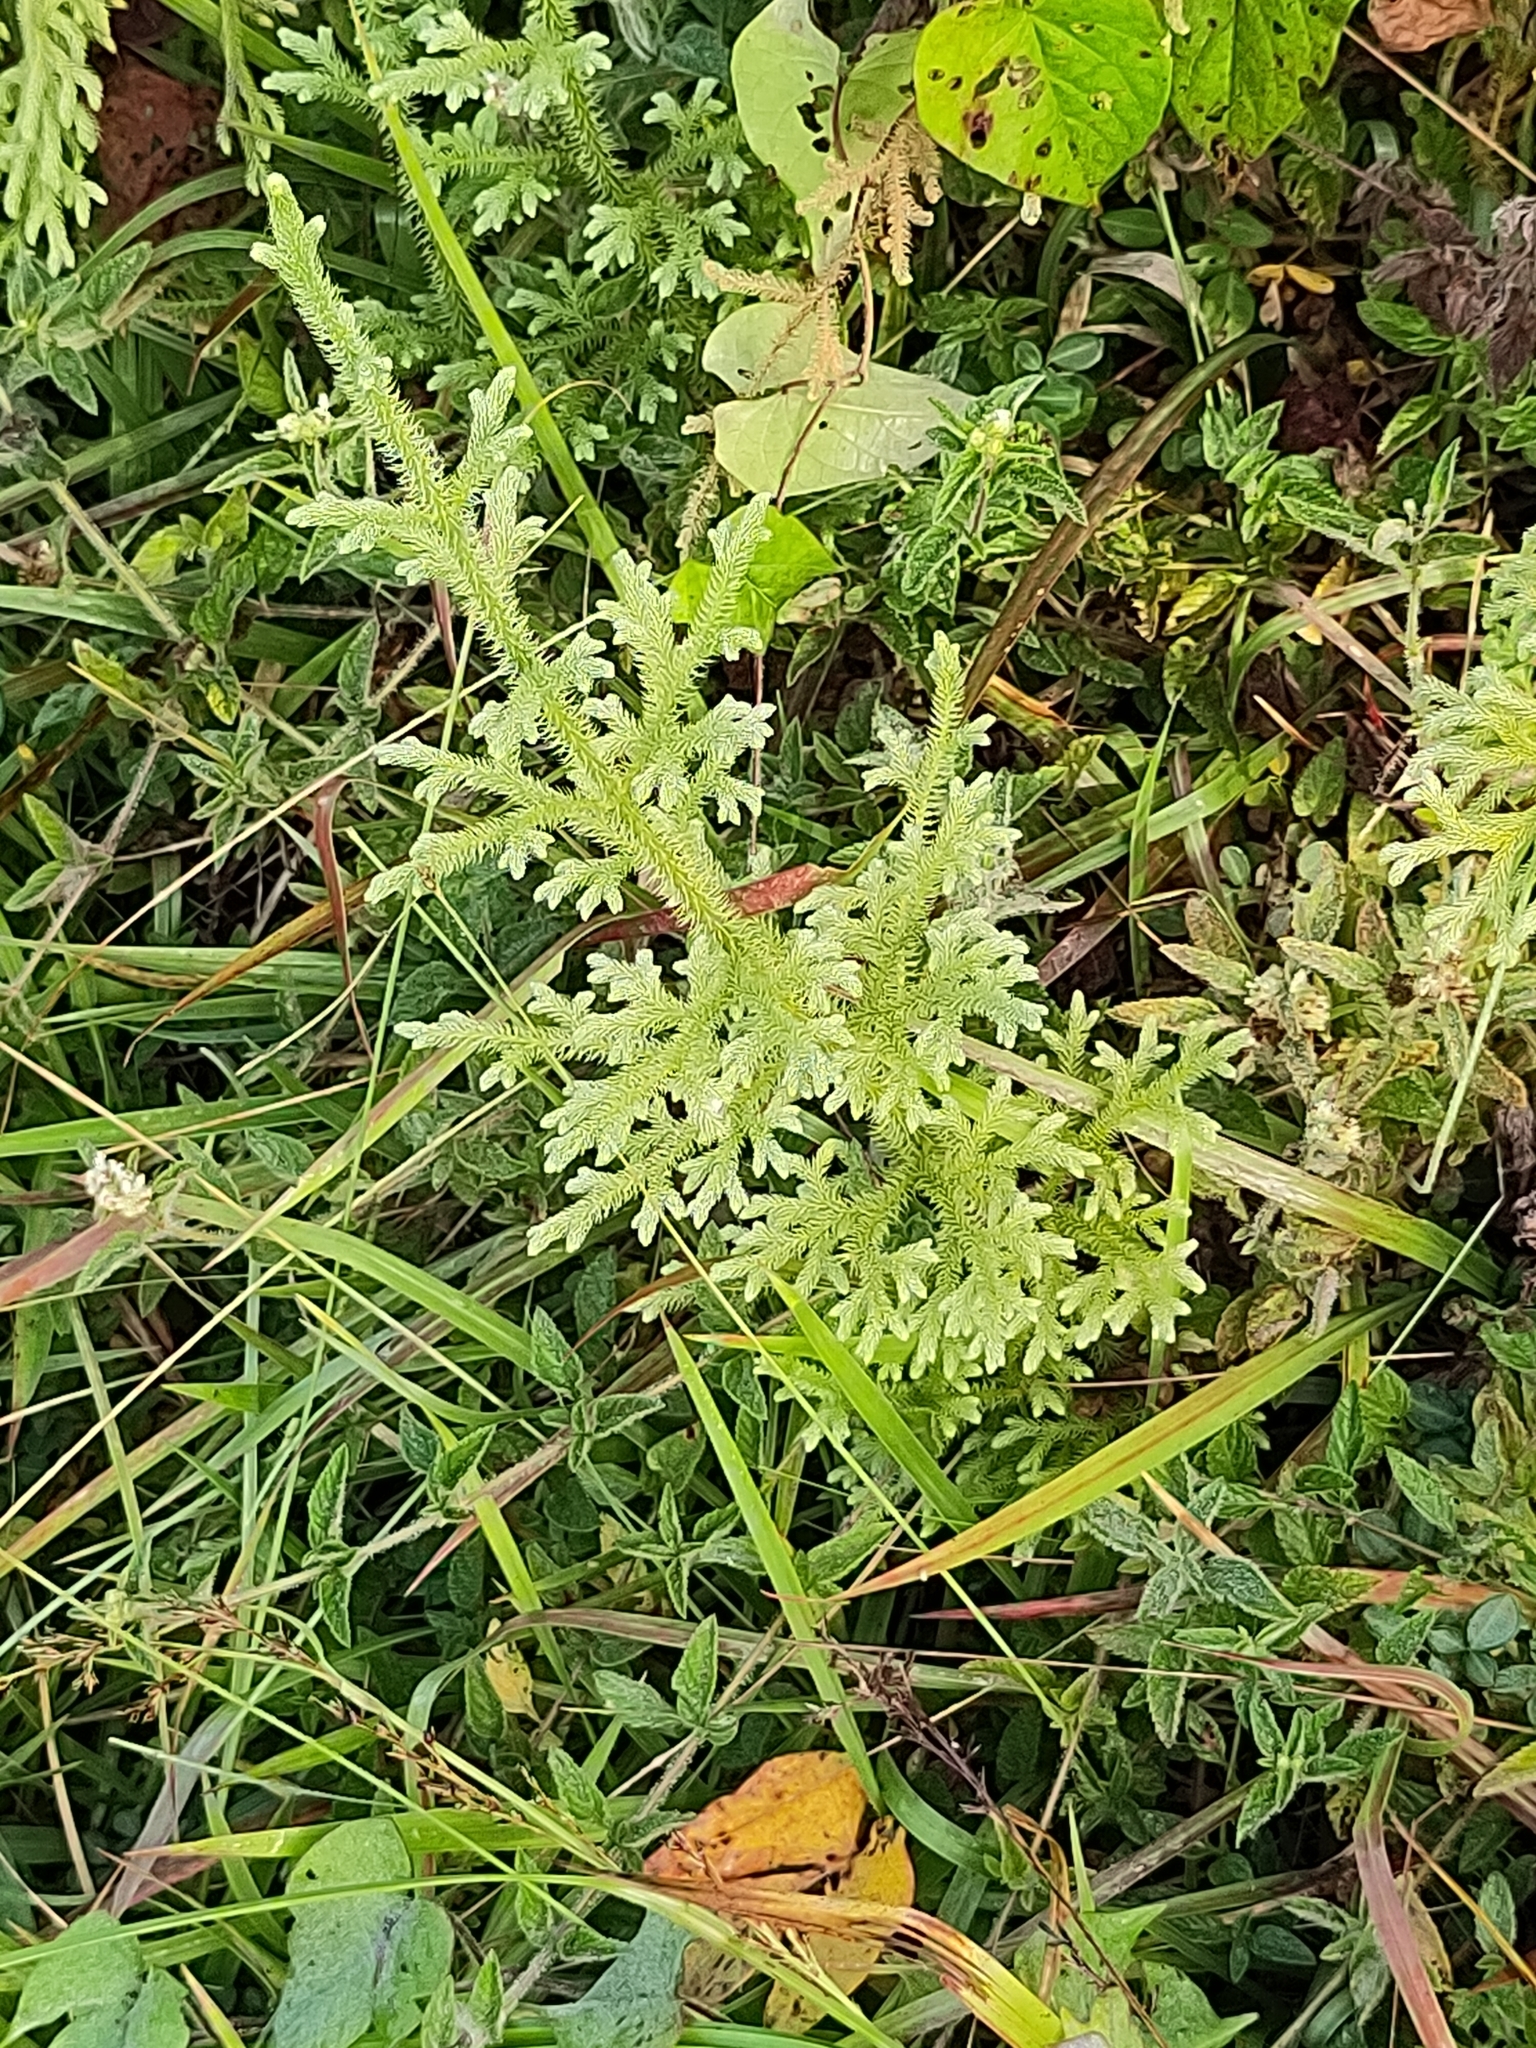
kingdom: Plantae
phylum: Tracheophyta
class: Lycopodiopsida
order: Lycopodiales
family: Lycopodiaceae
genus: Palhinhaea
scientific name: Palhinhaea cernua
